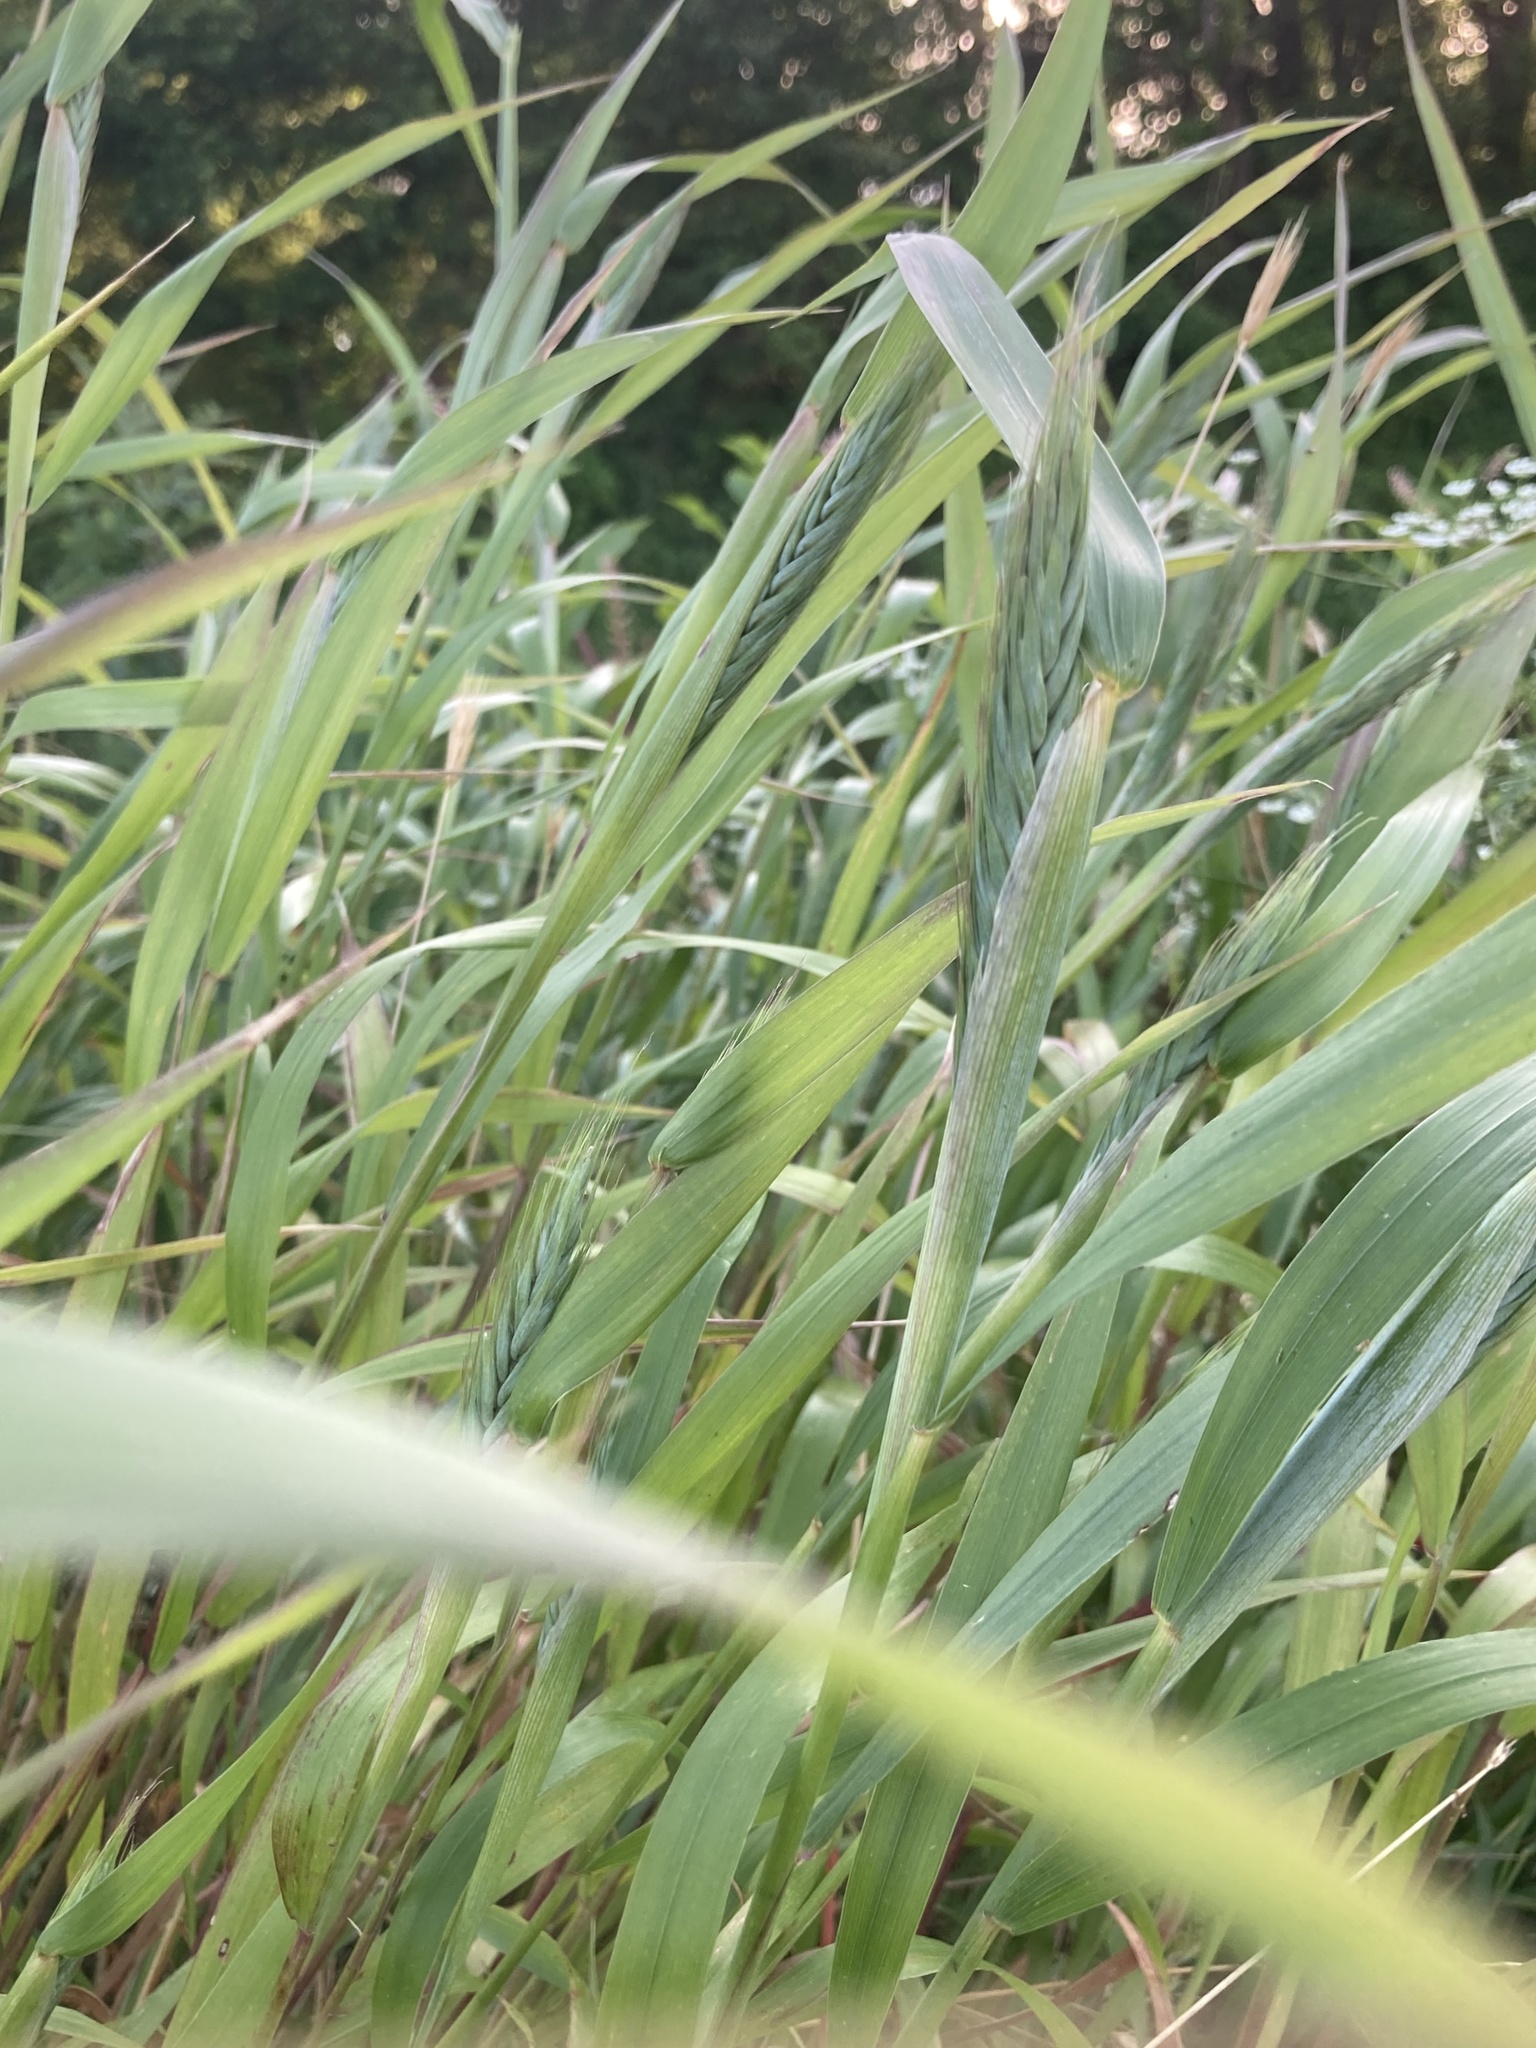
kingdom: Plantae
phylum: Tracheophyta
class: Liliopsida
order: Poales
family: Poaceae
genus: Sorghum
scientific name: Sorghum halepense
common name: Johnson-grass
